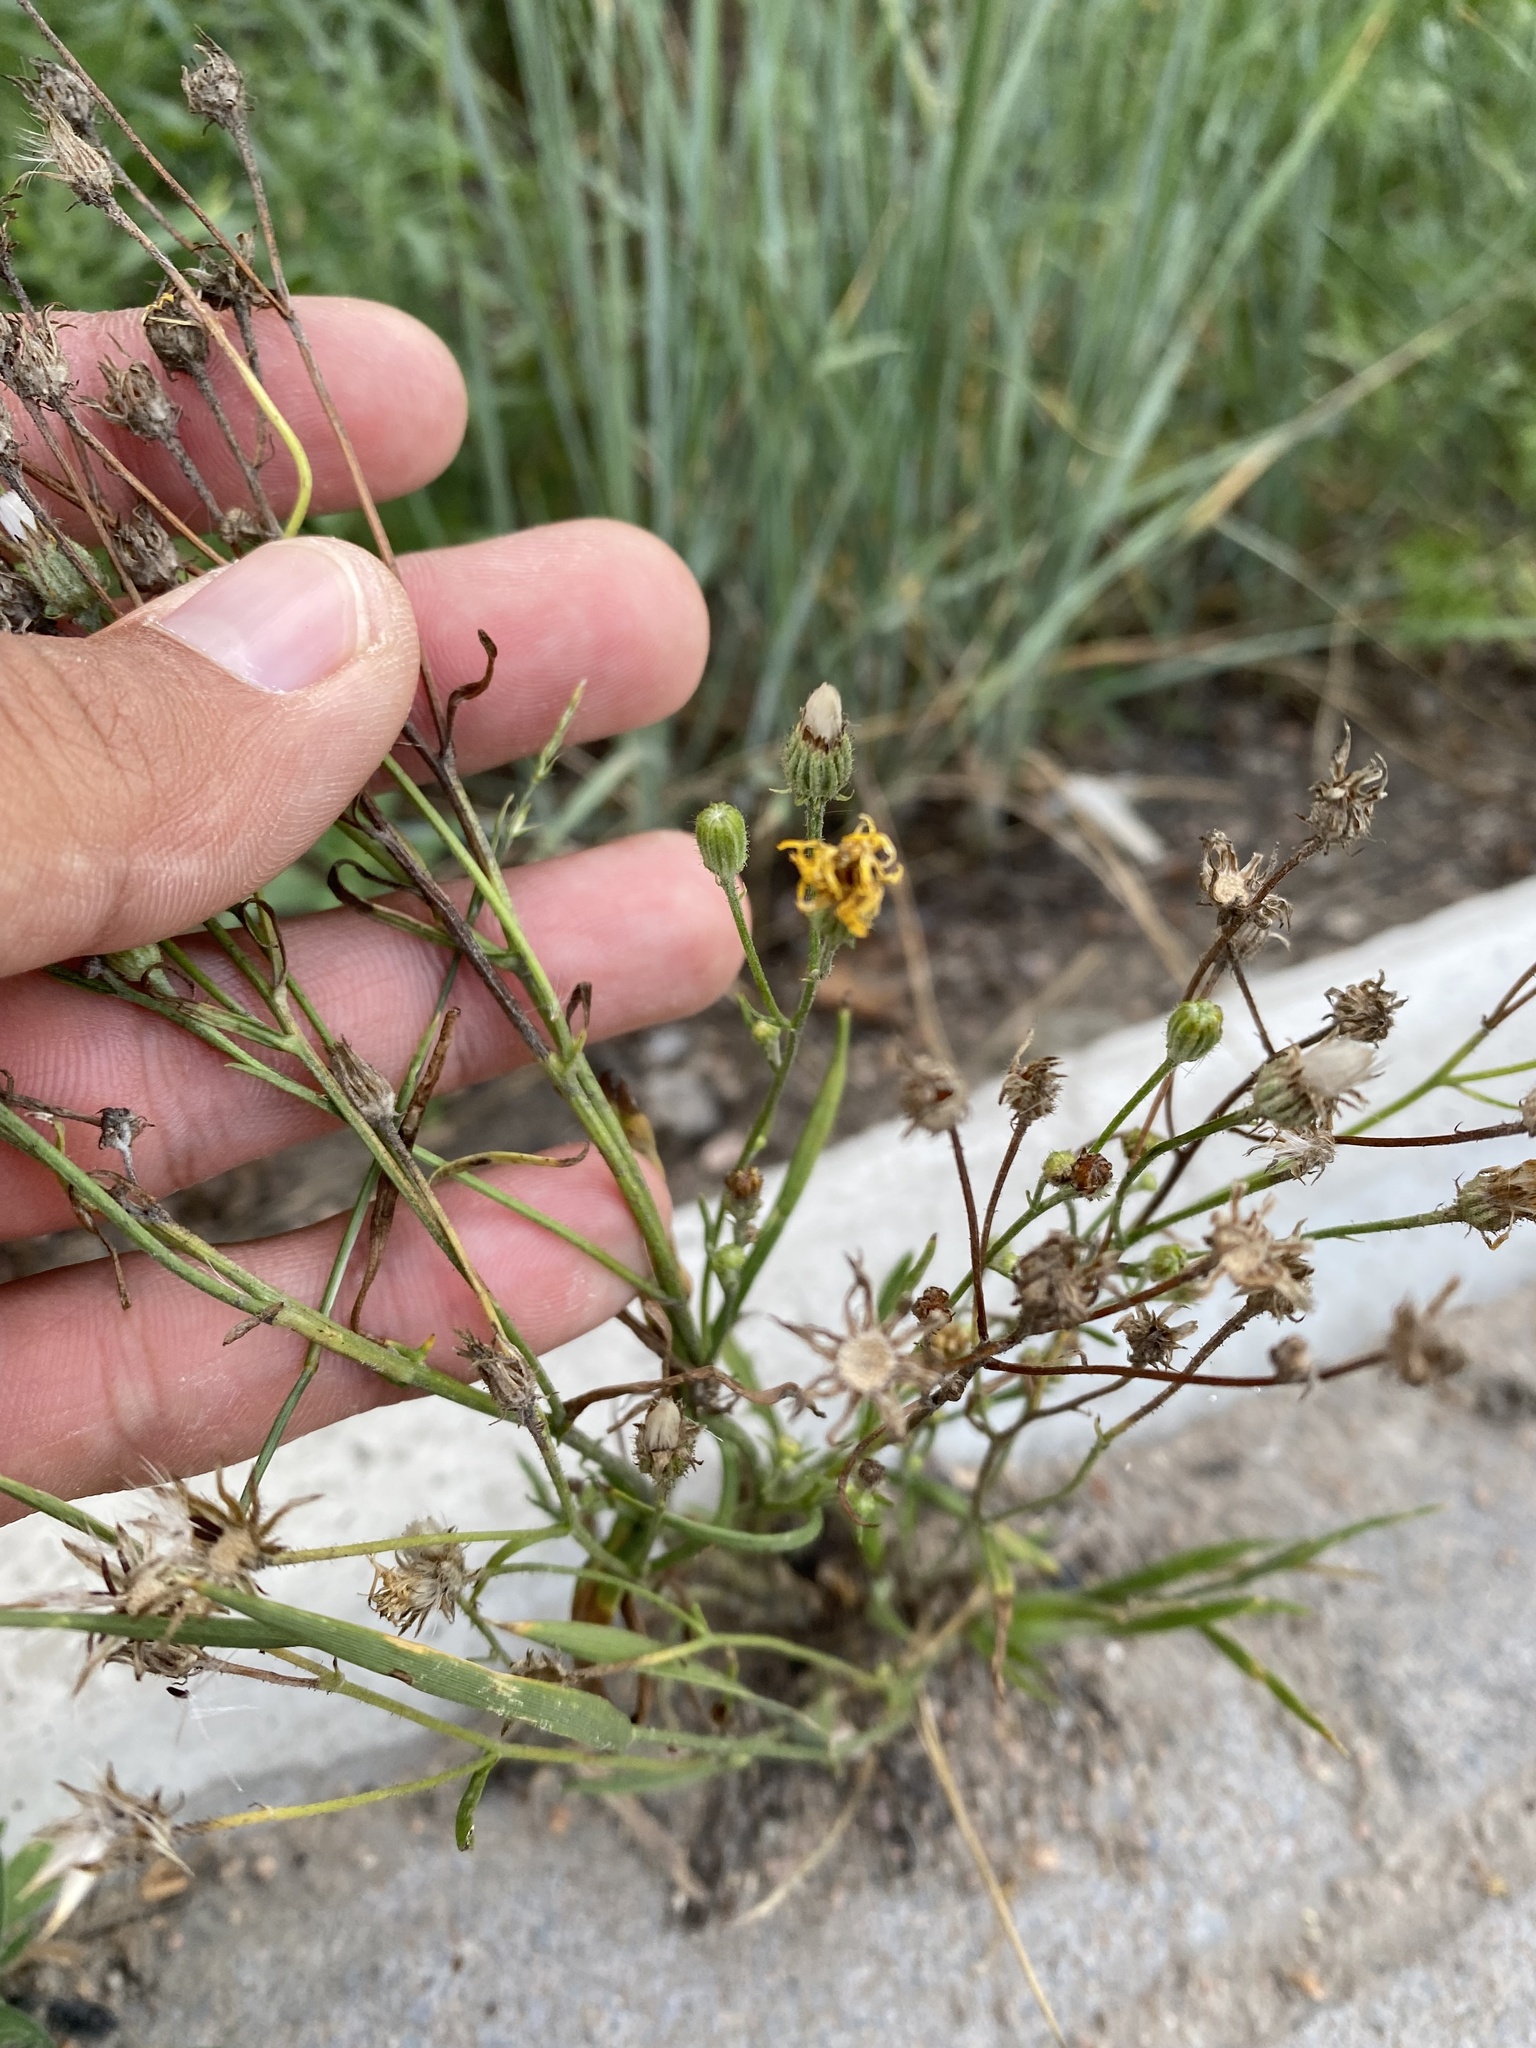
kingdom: Plantae
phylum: Tracheophyta
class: Magnoliopsida
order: Asterales
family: Asteraceae
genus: Crepis
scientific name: Crepis tectorum
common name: Narrow-leaved hawk's-beard
